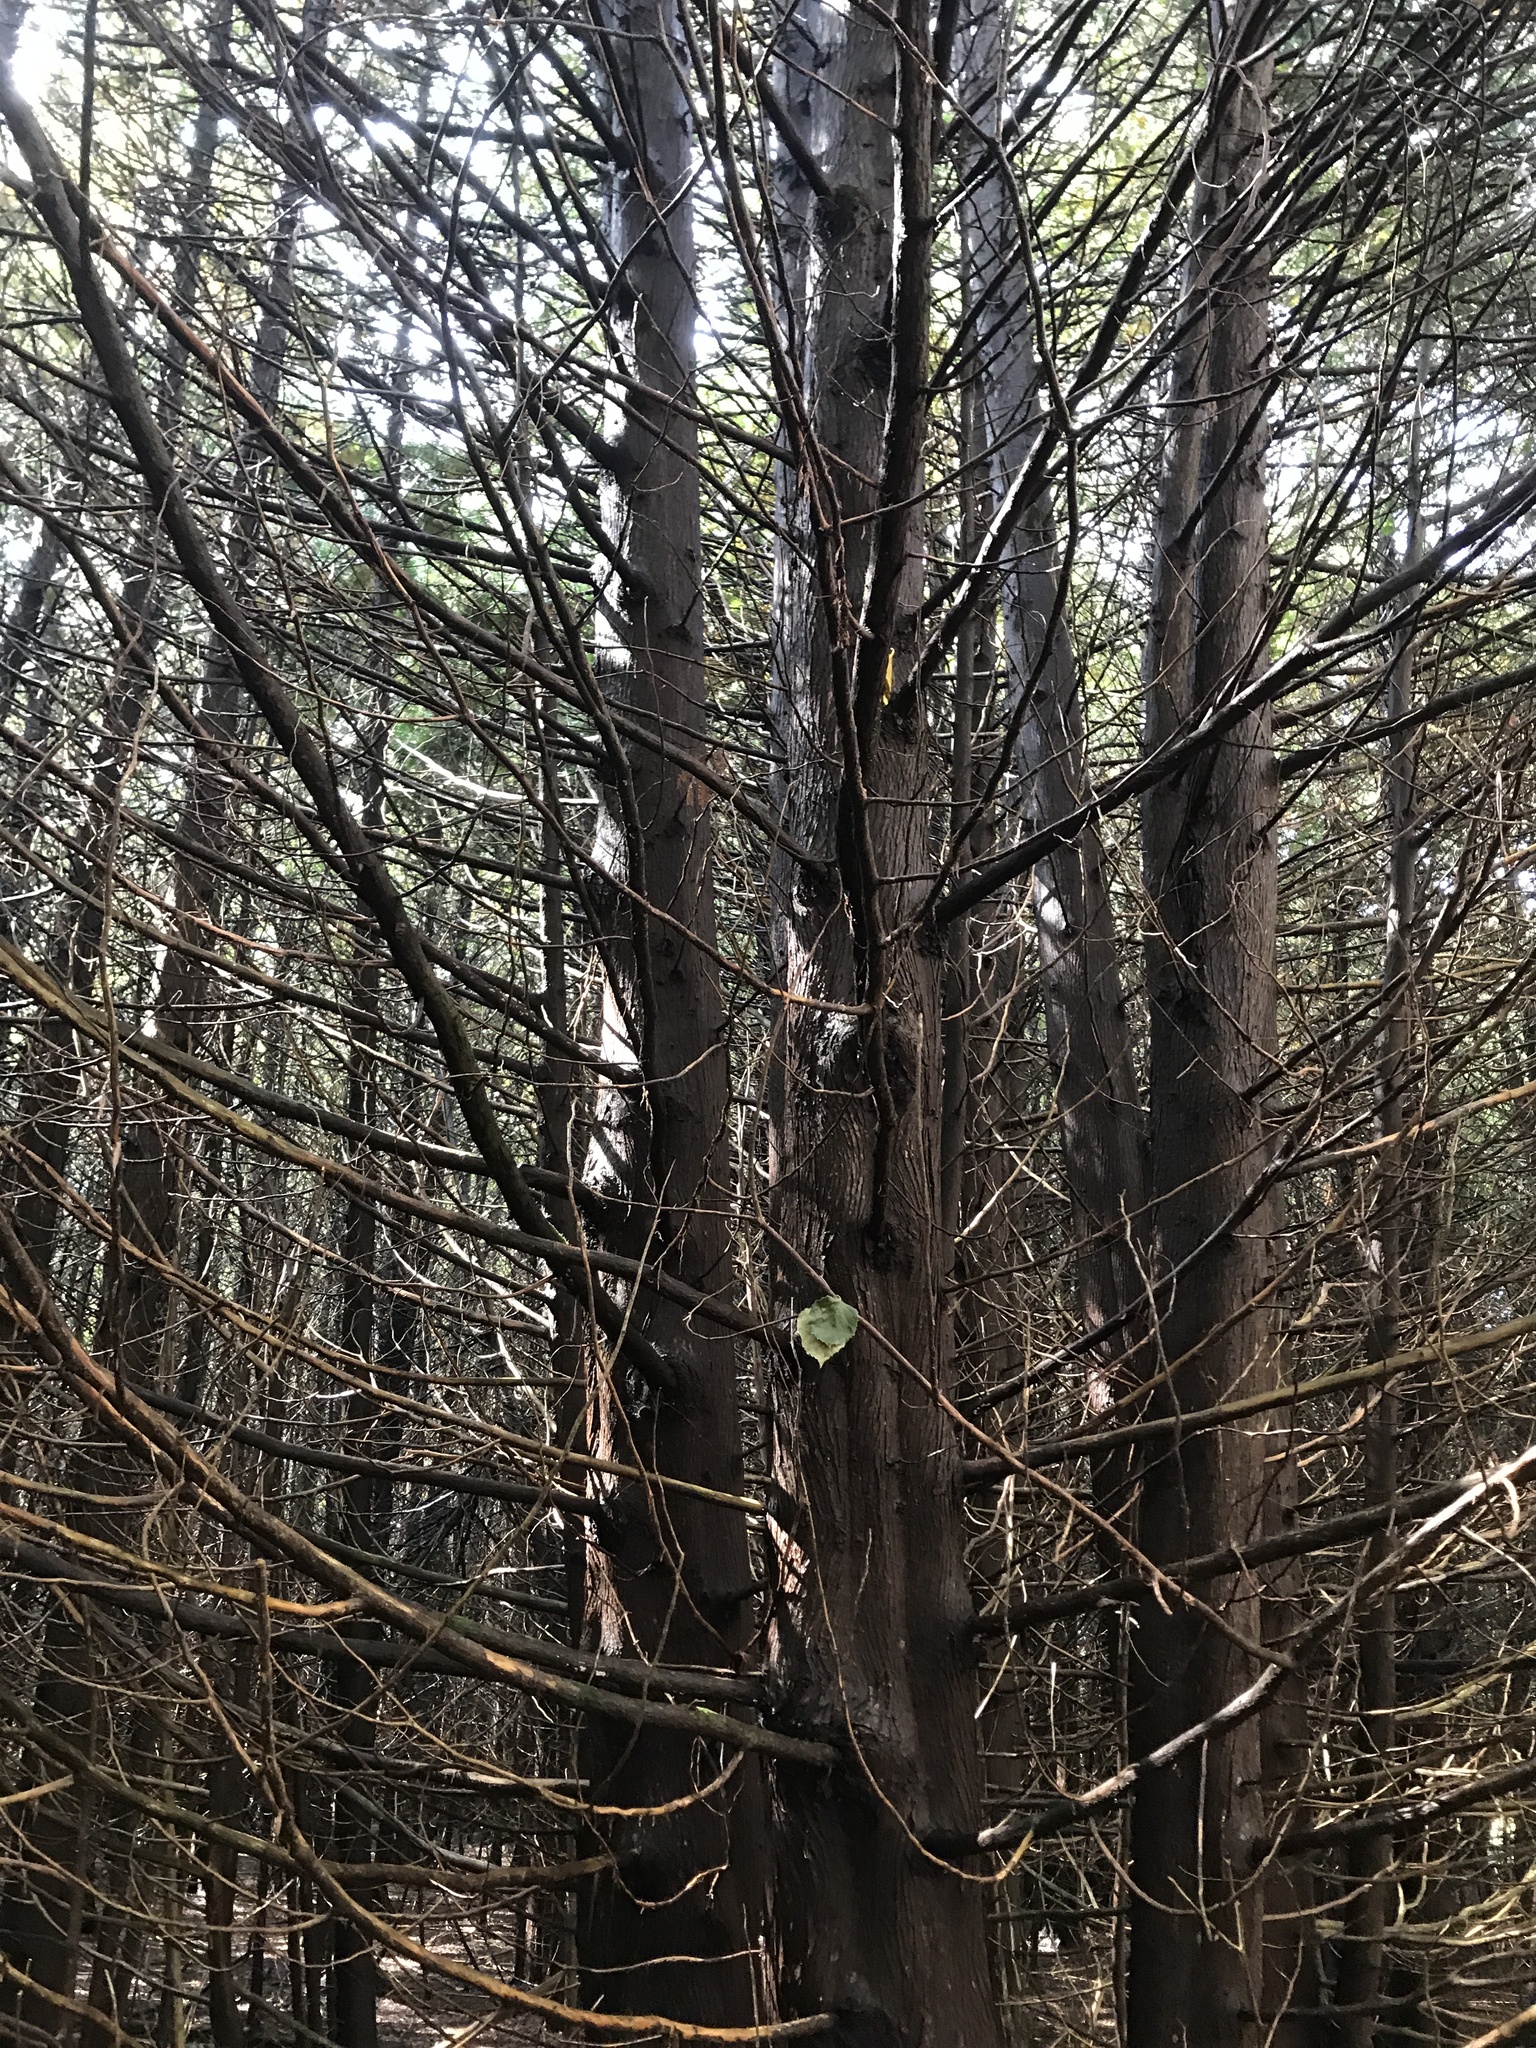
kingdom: Plantae
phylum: Tracheophyta
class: Pinopsida
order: Pinales
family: Cupressaceae
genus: Thuja
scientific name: Thuja occidentalis
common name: Northern white-cedar
